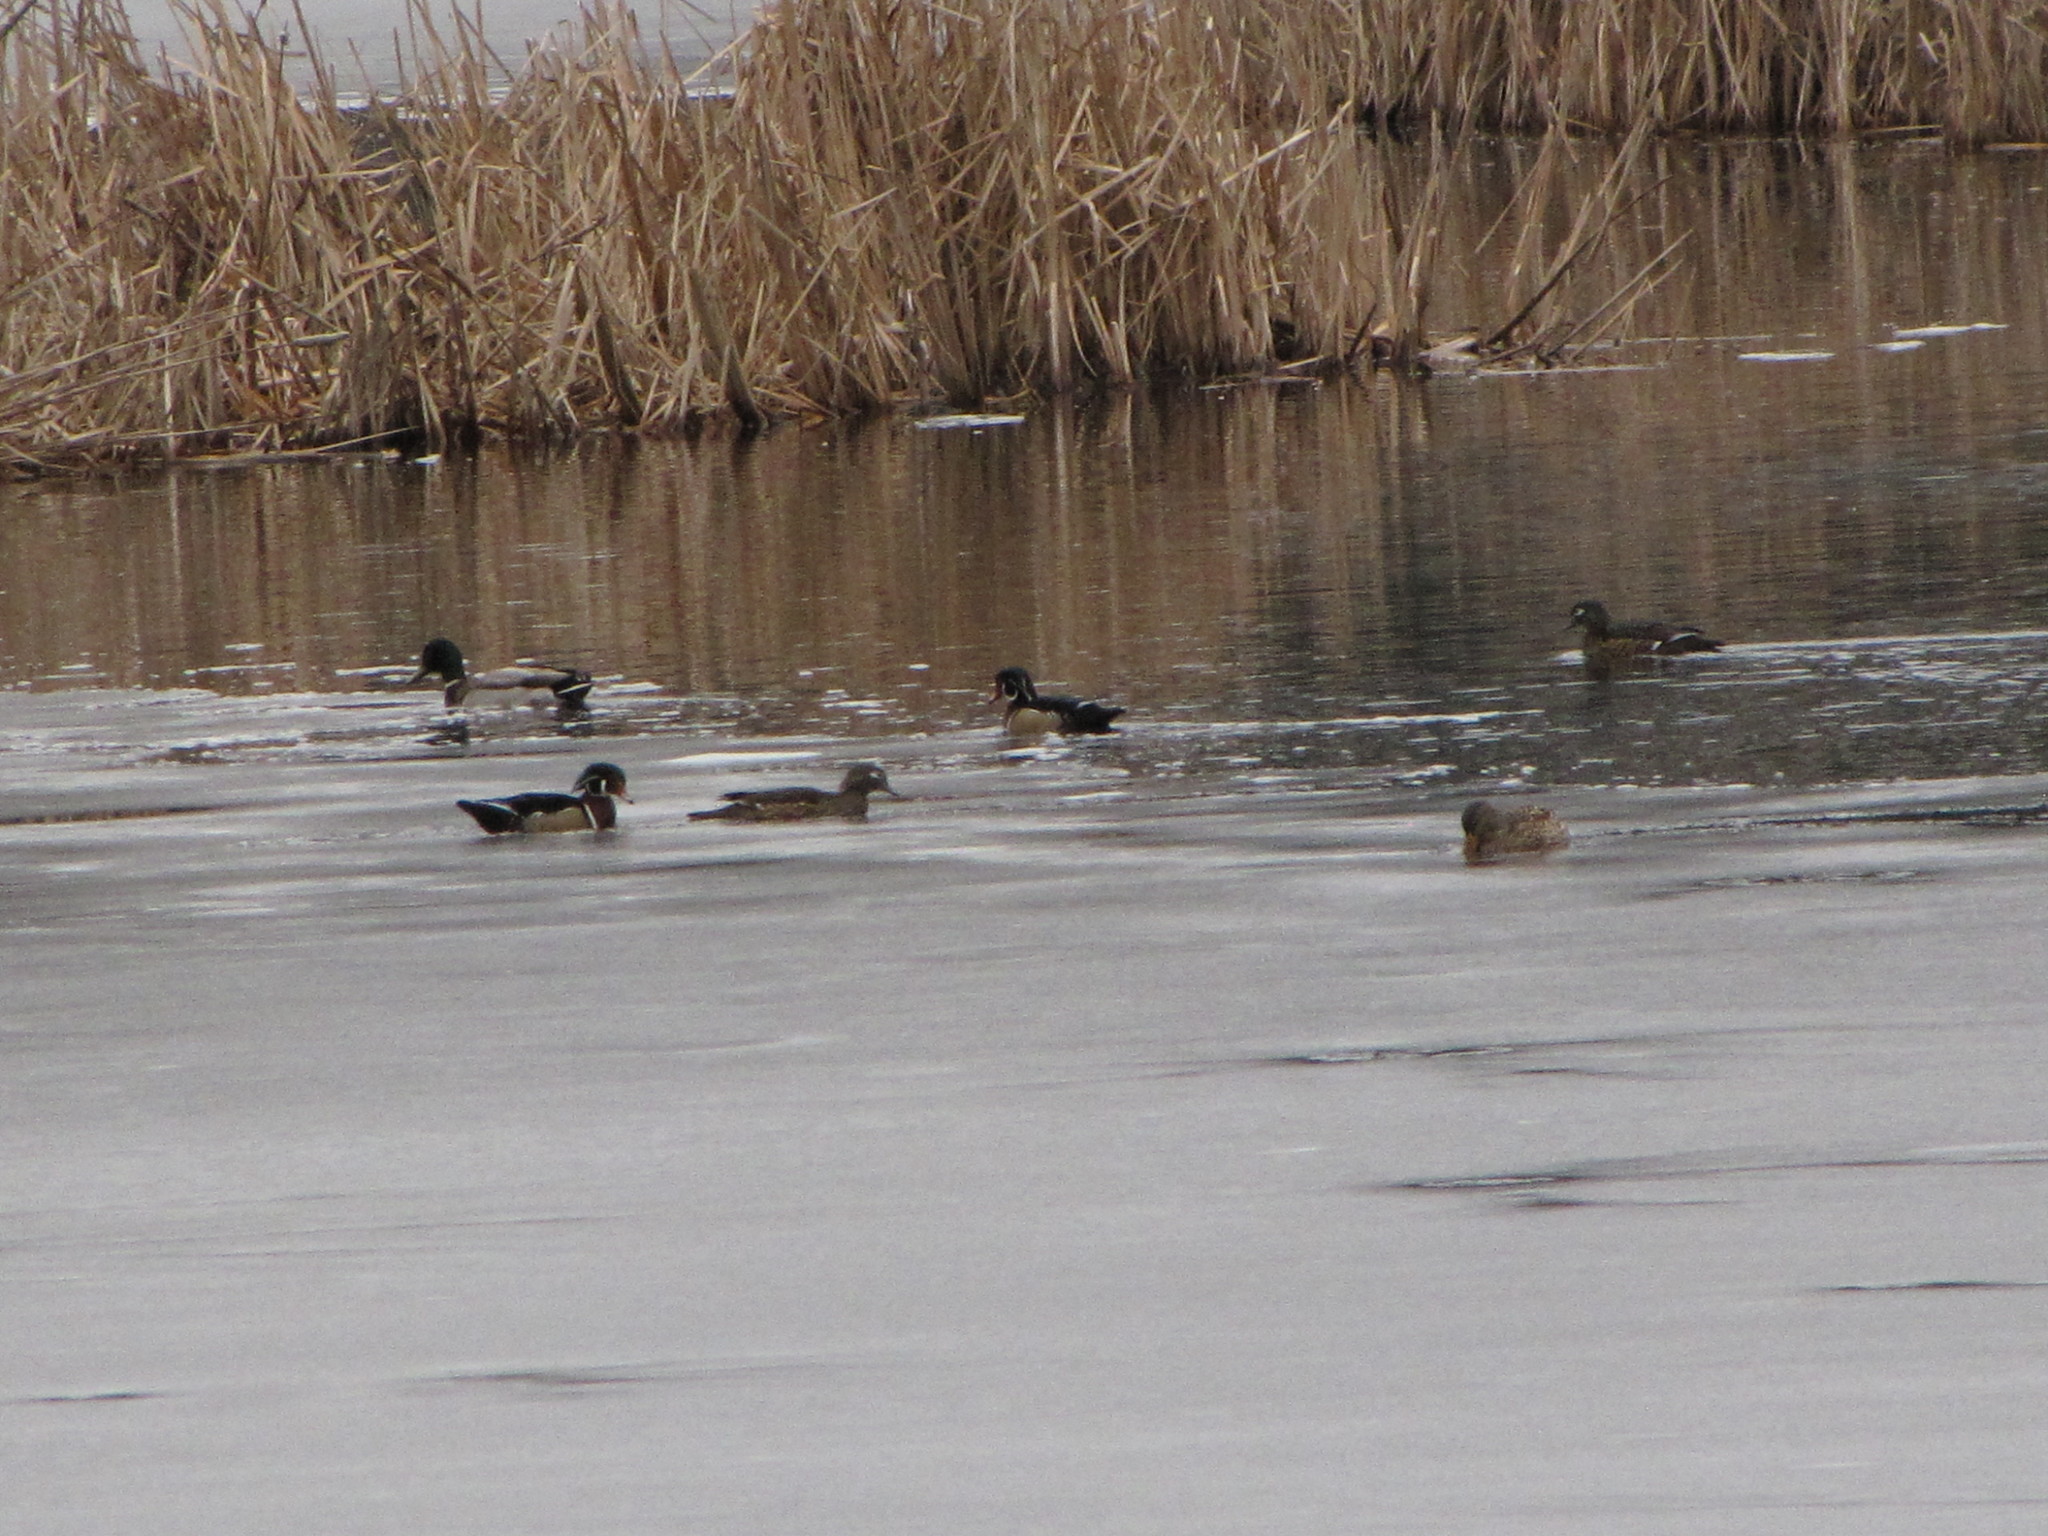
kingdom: Animalia
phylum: Chordata
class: Aves
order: Anseriformes
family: Anatidae
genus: Aix
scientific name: Aix sponsa
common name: Wood duck
